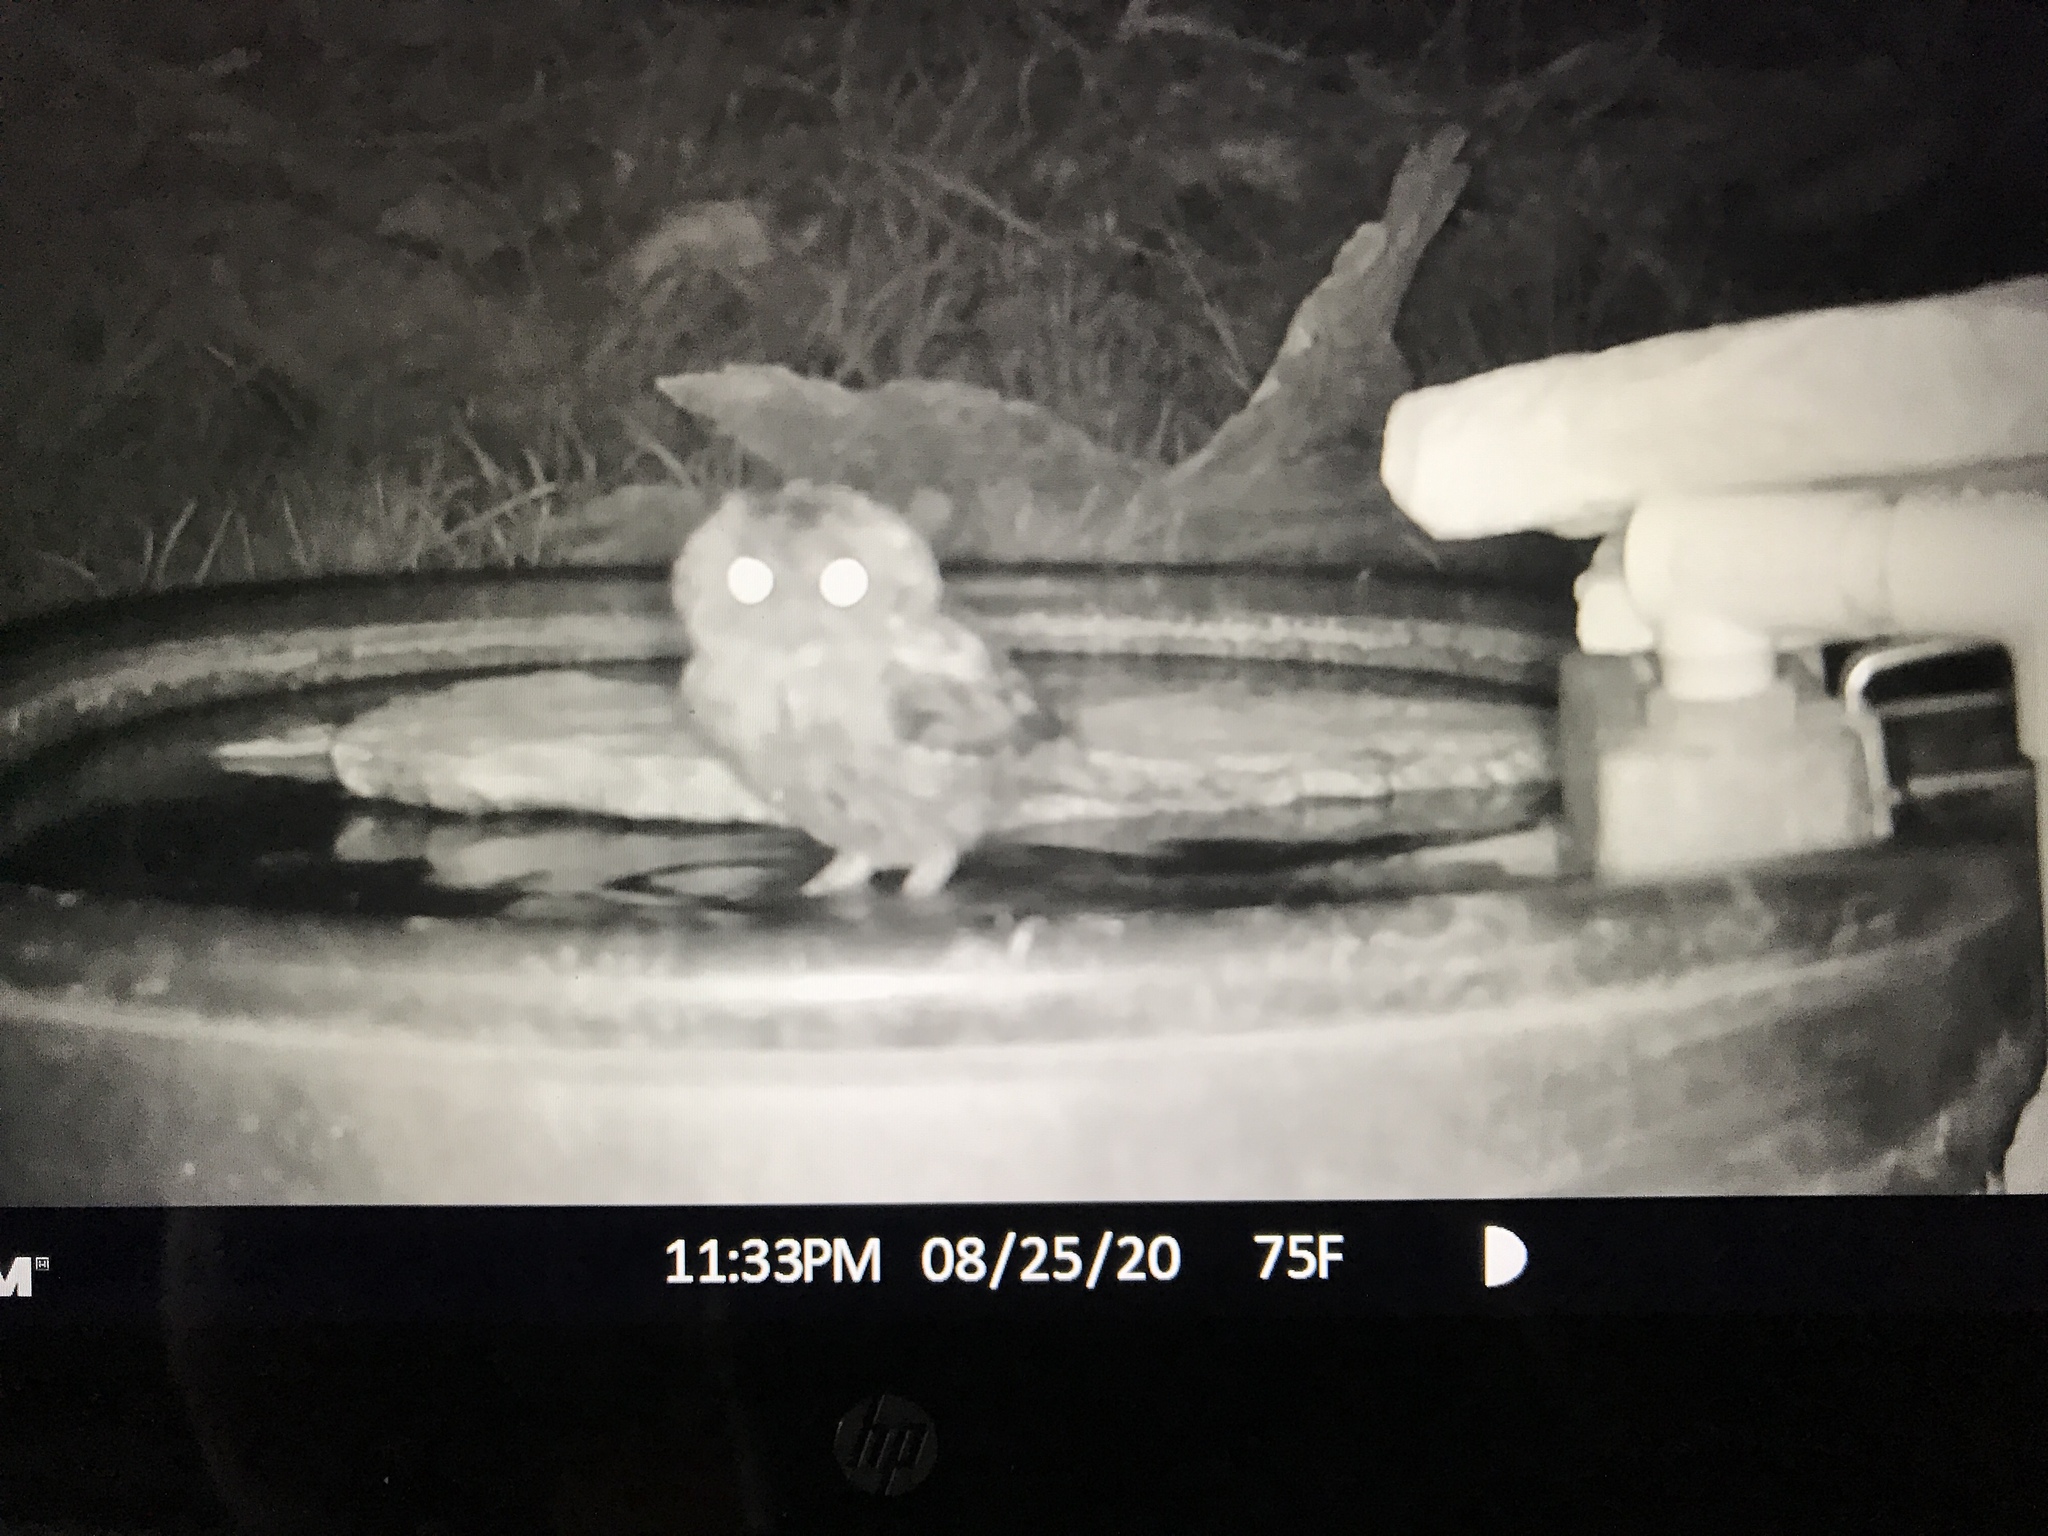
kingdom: Animalia
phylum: Chordata
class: Aves
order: Strigiformes
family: Strigidae
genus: Megascops
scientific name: Megascops asio
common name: Eastern screech-owl
